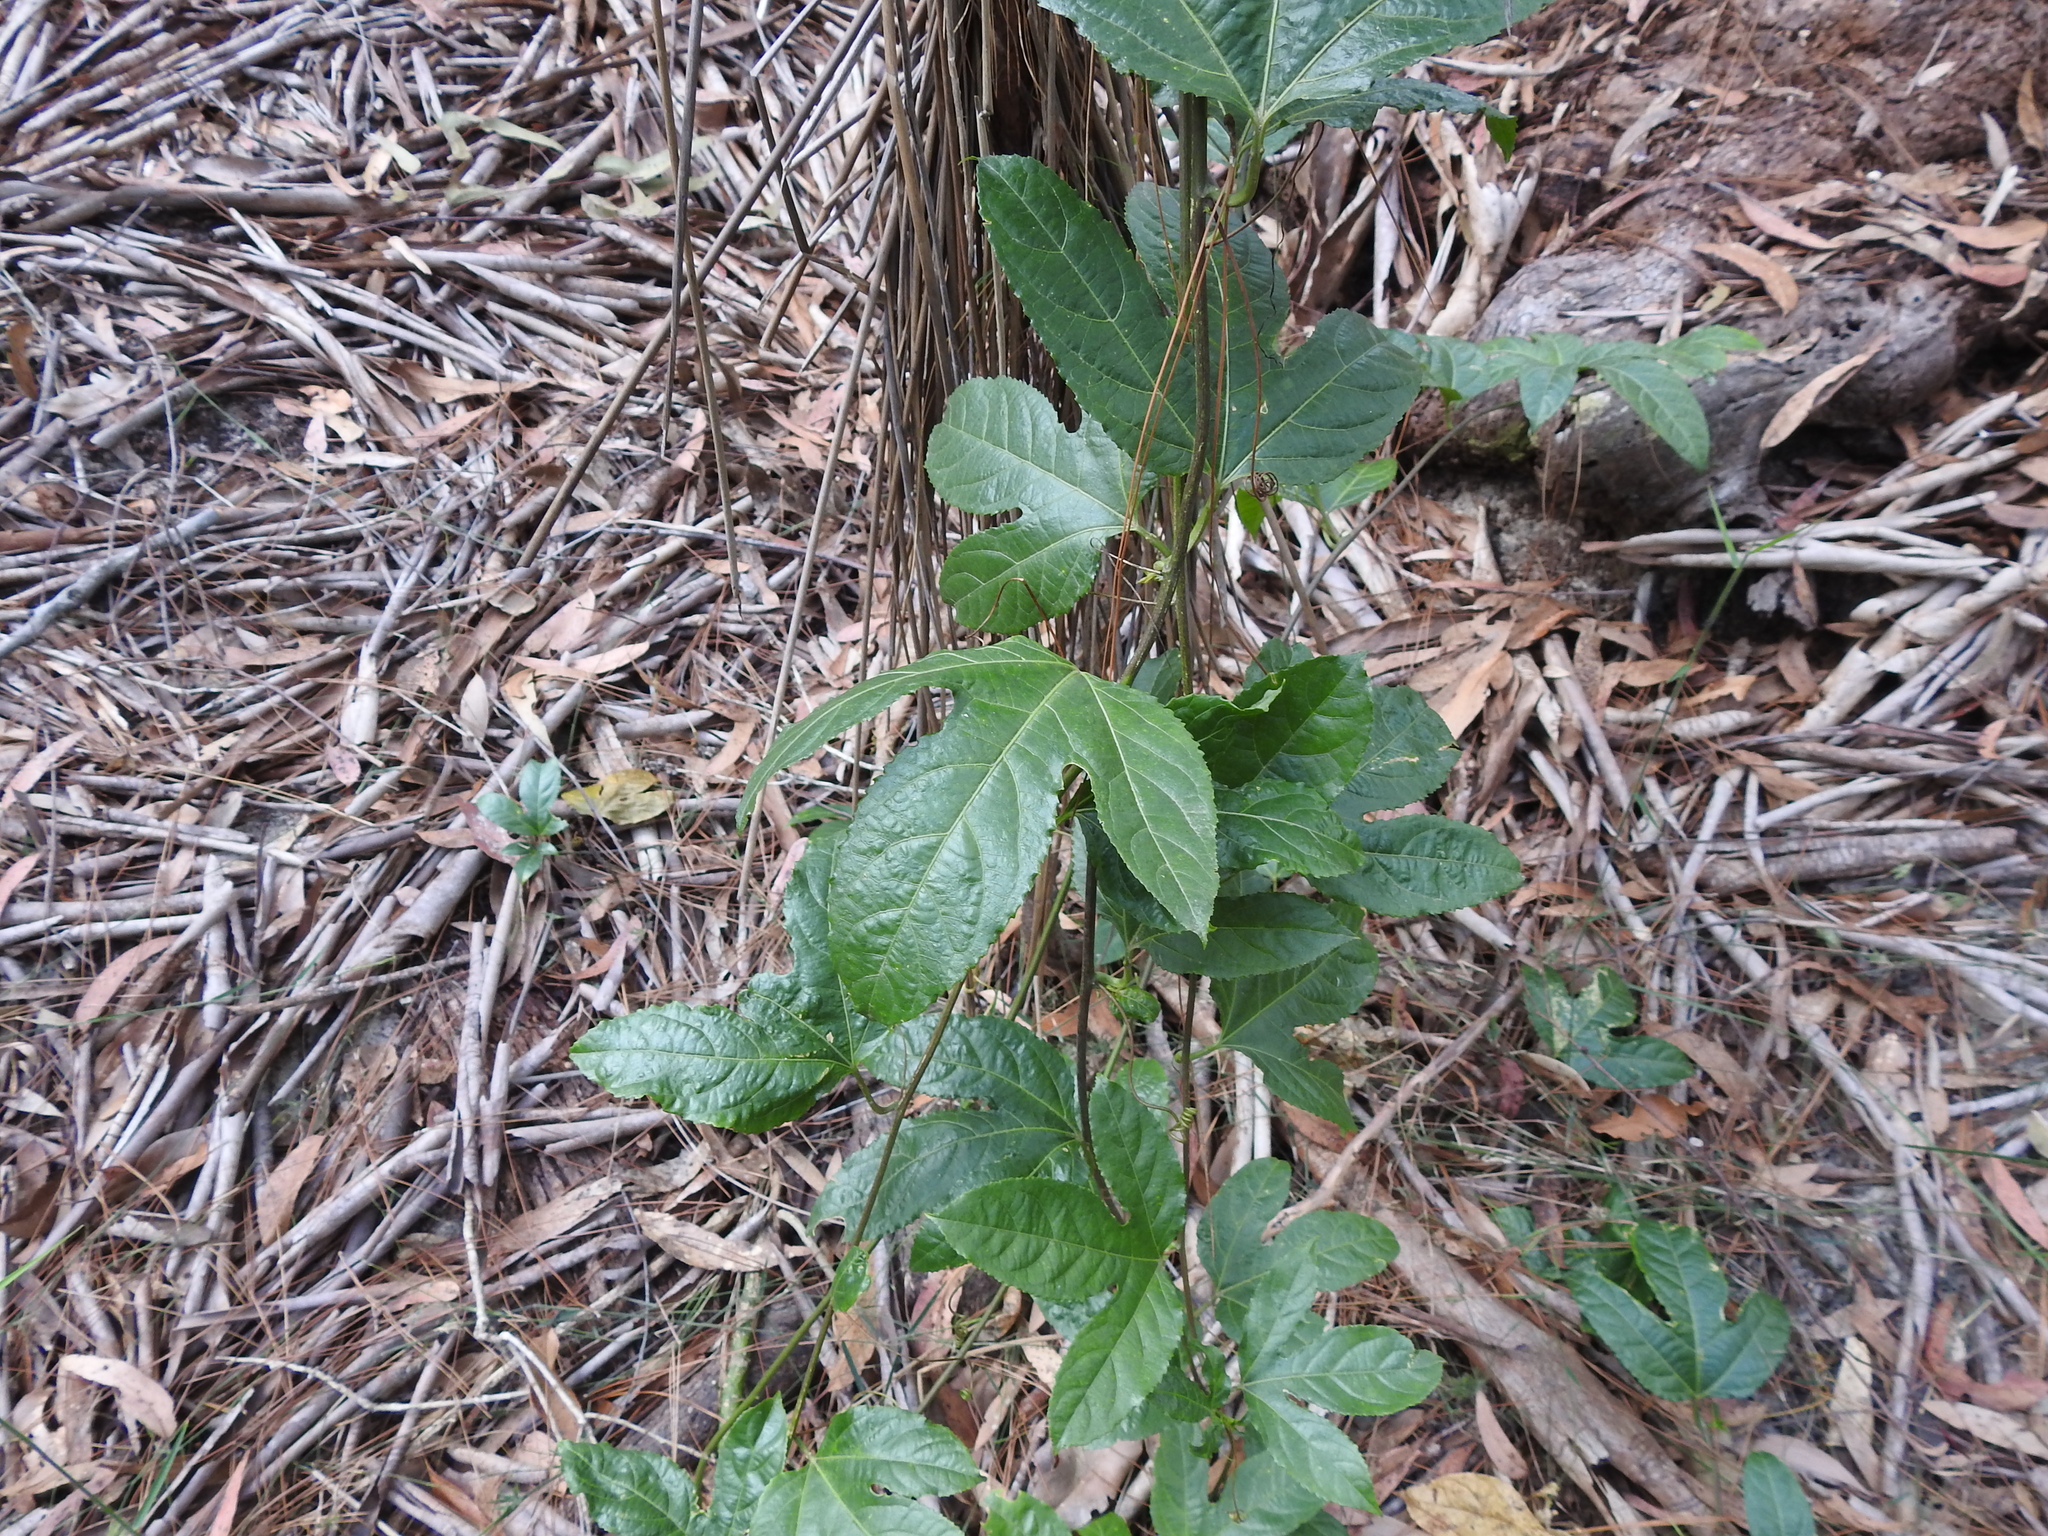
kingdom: Plantae
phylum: Tracheophyta
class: Magnoliopsida
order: Malpighiales
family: Passifloraceae
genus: Passiflora
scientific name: Passiflora edulis
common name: Purple granadilla
